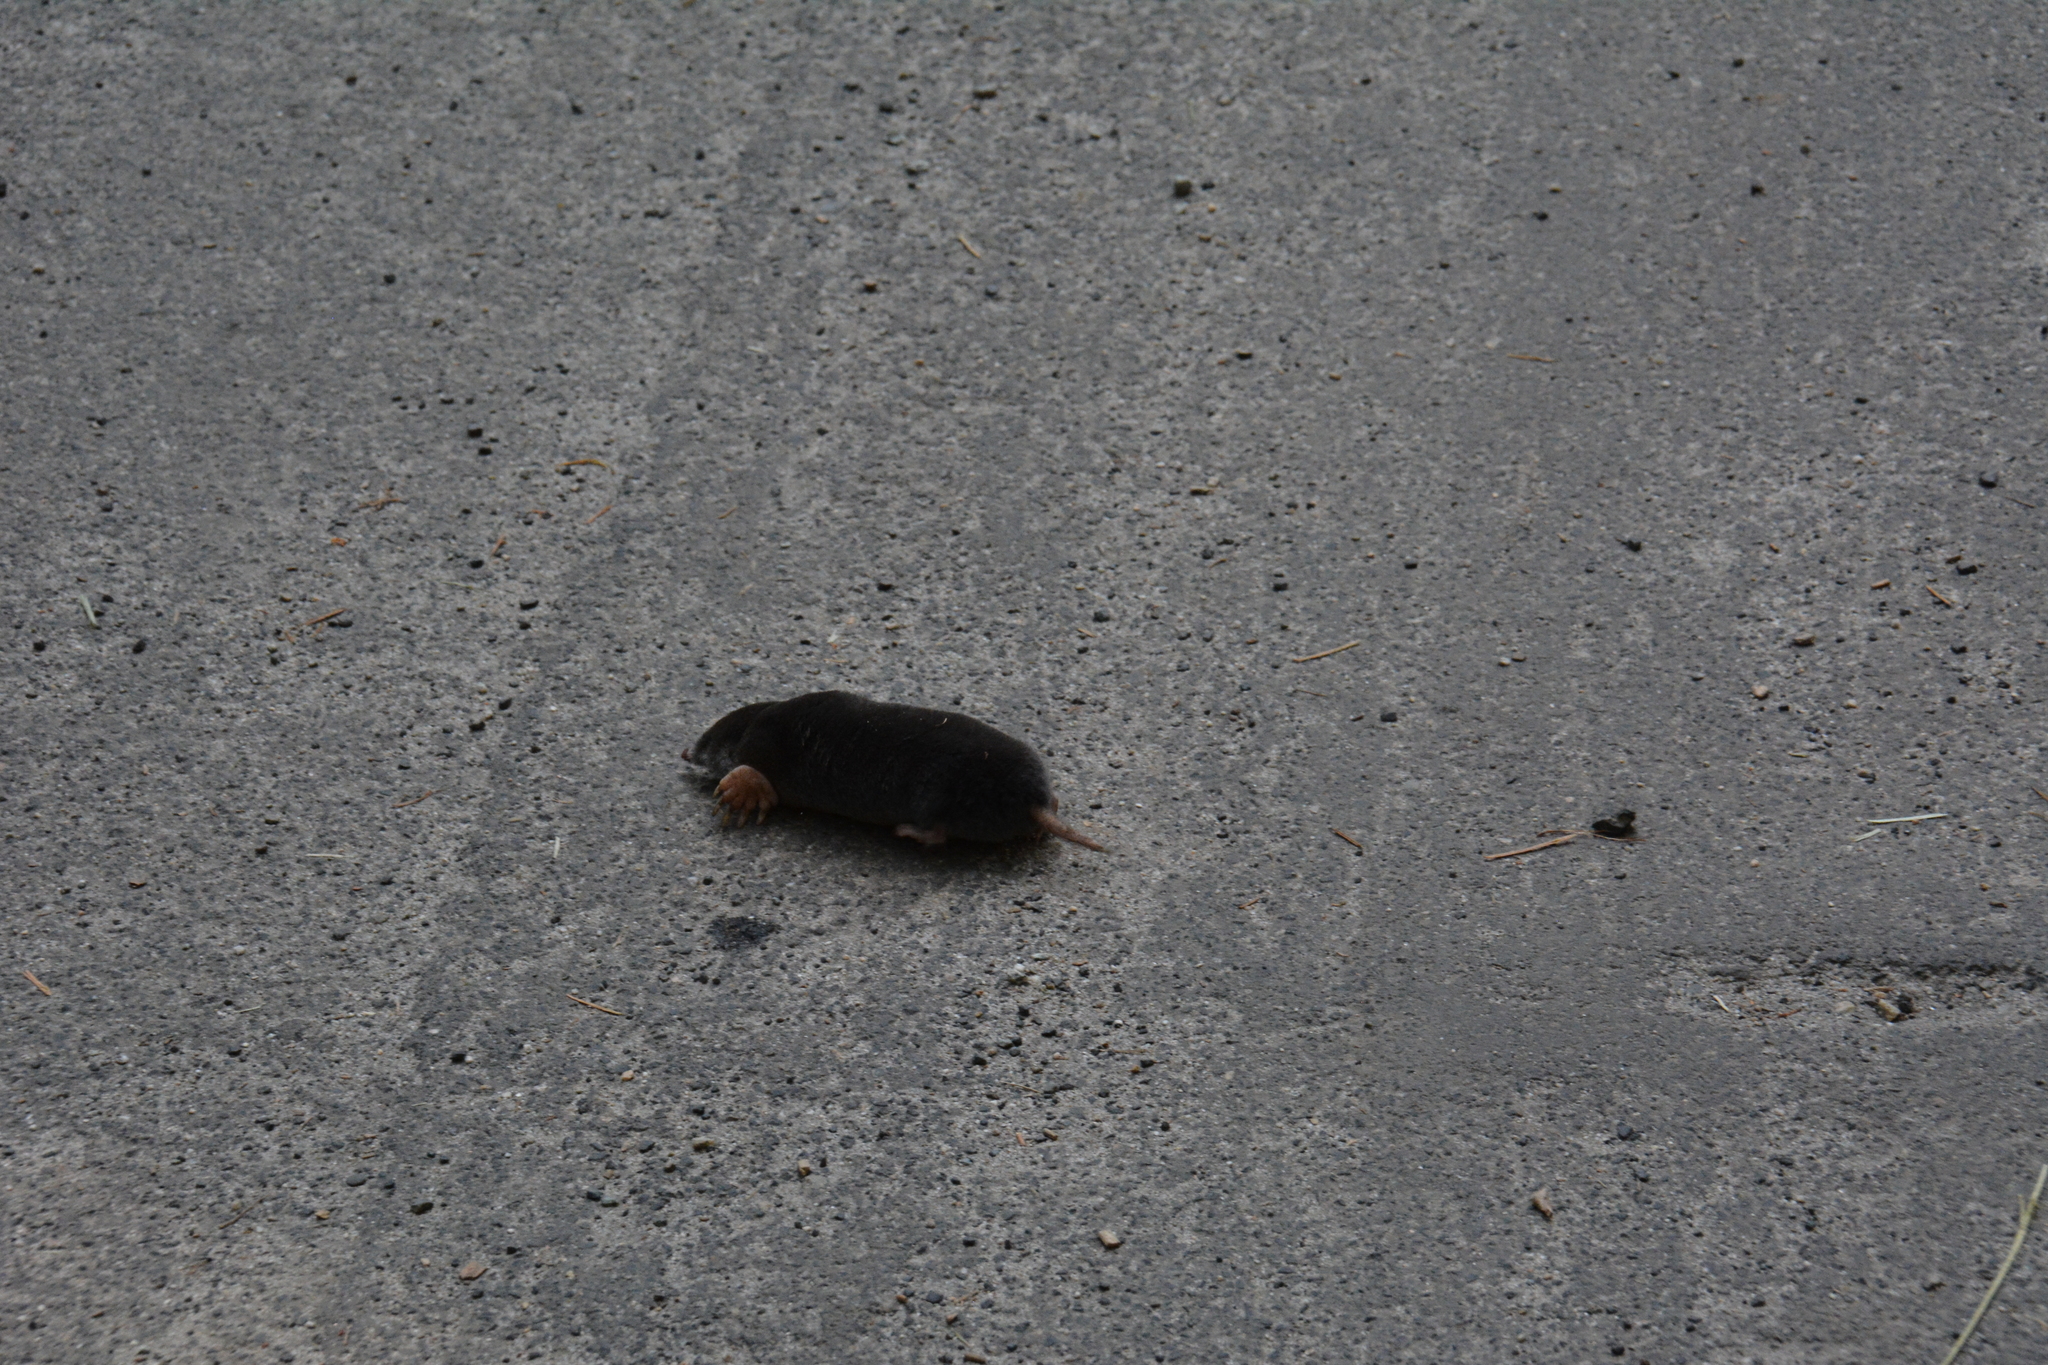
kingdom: Animalia
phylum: Chordata
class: Mammalia
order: Soricomorpha
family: Talpidae
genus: Scapanus
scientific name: Scapanus latimanus
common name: Broad-footed mole
